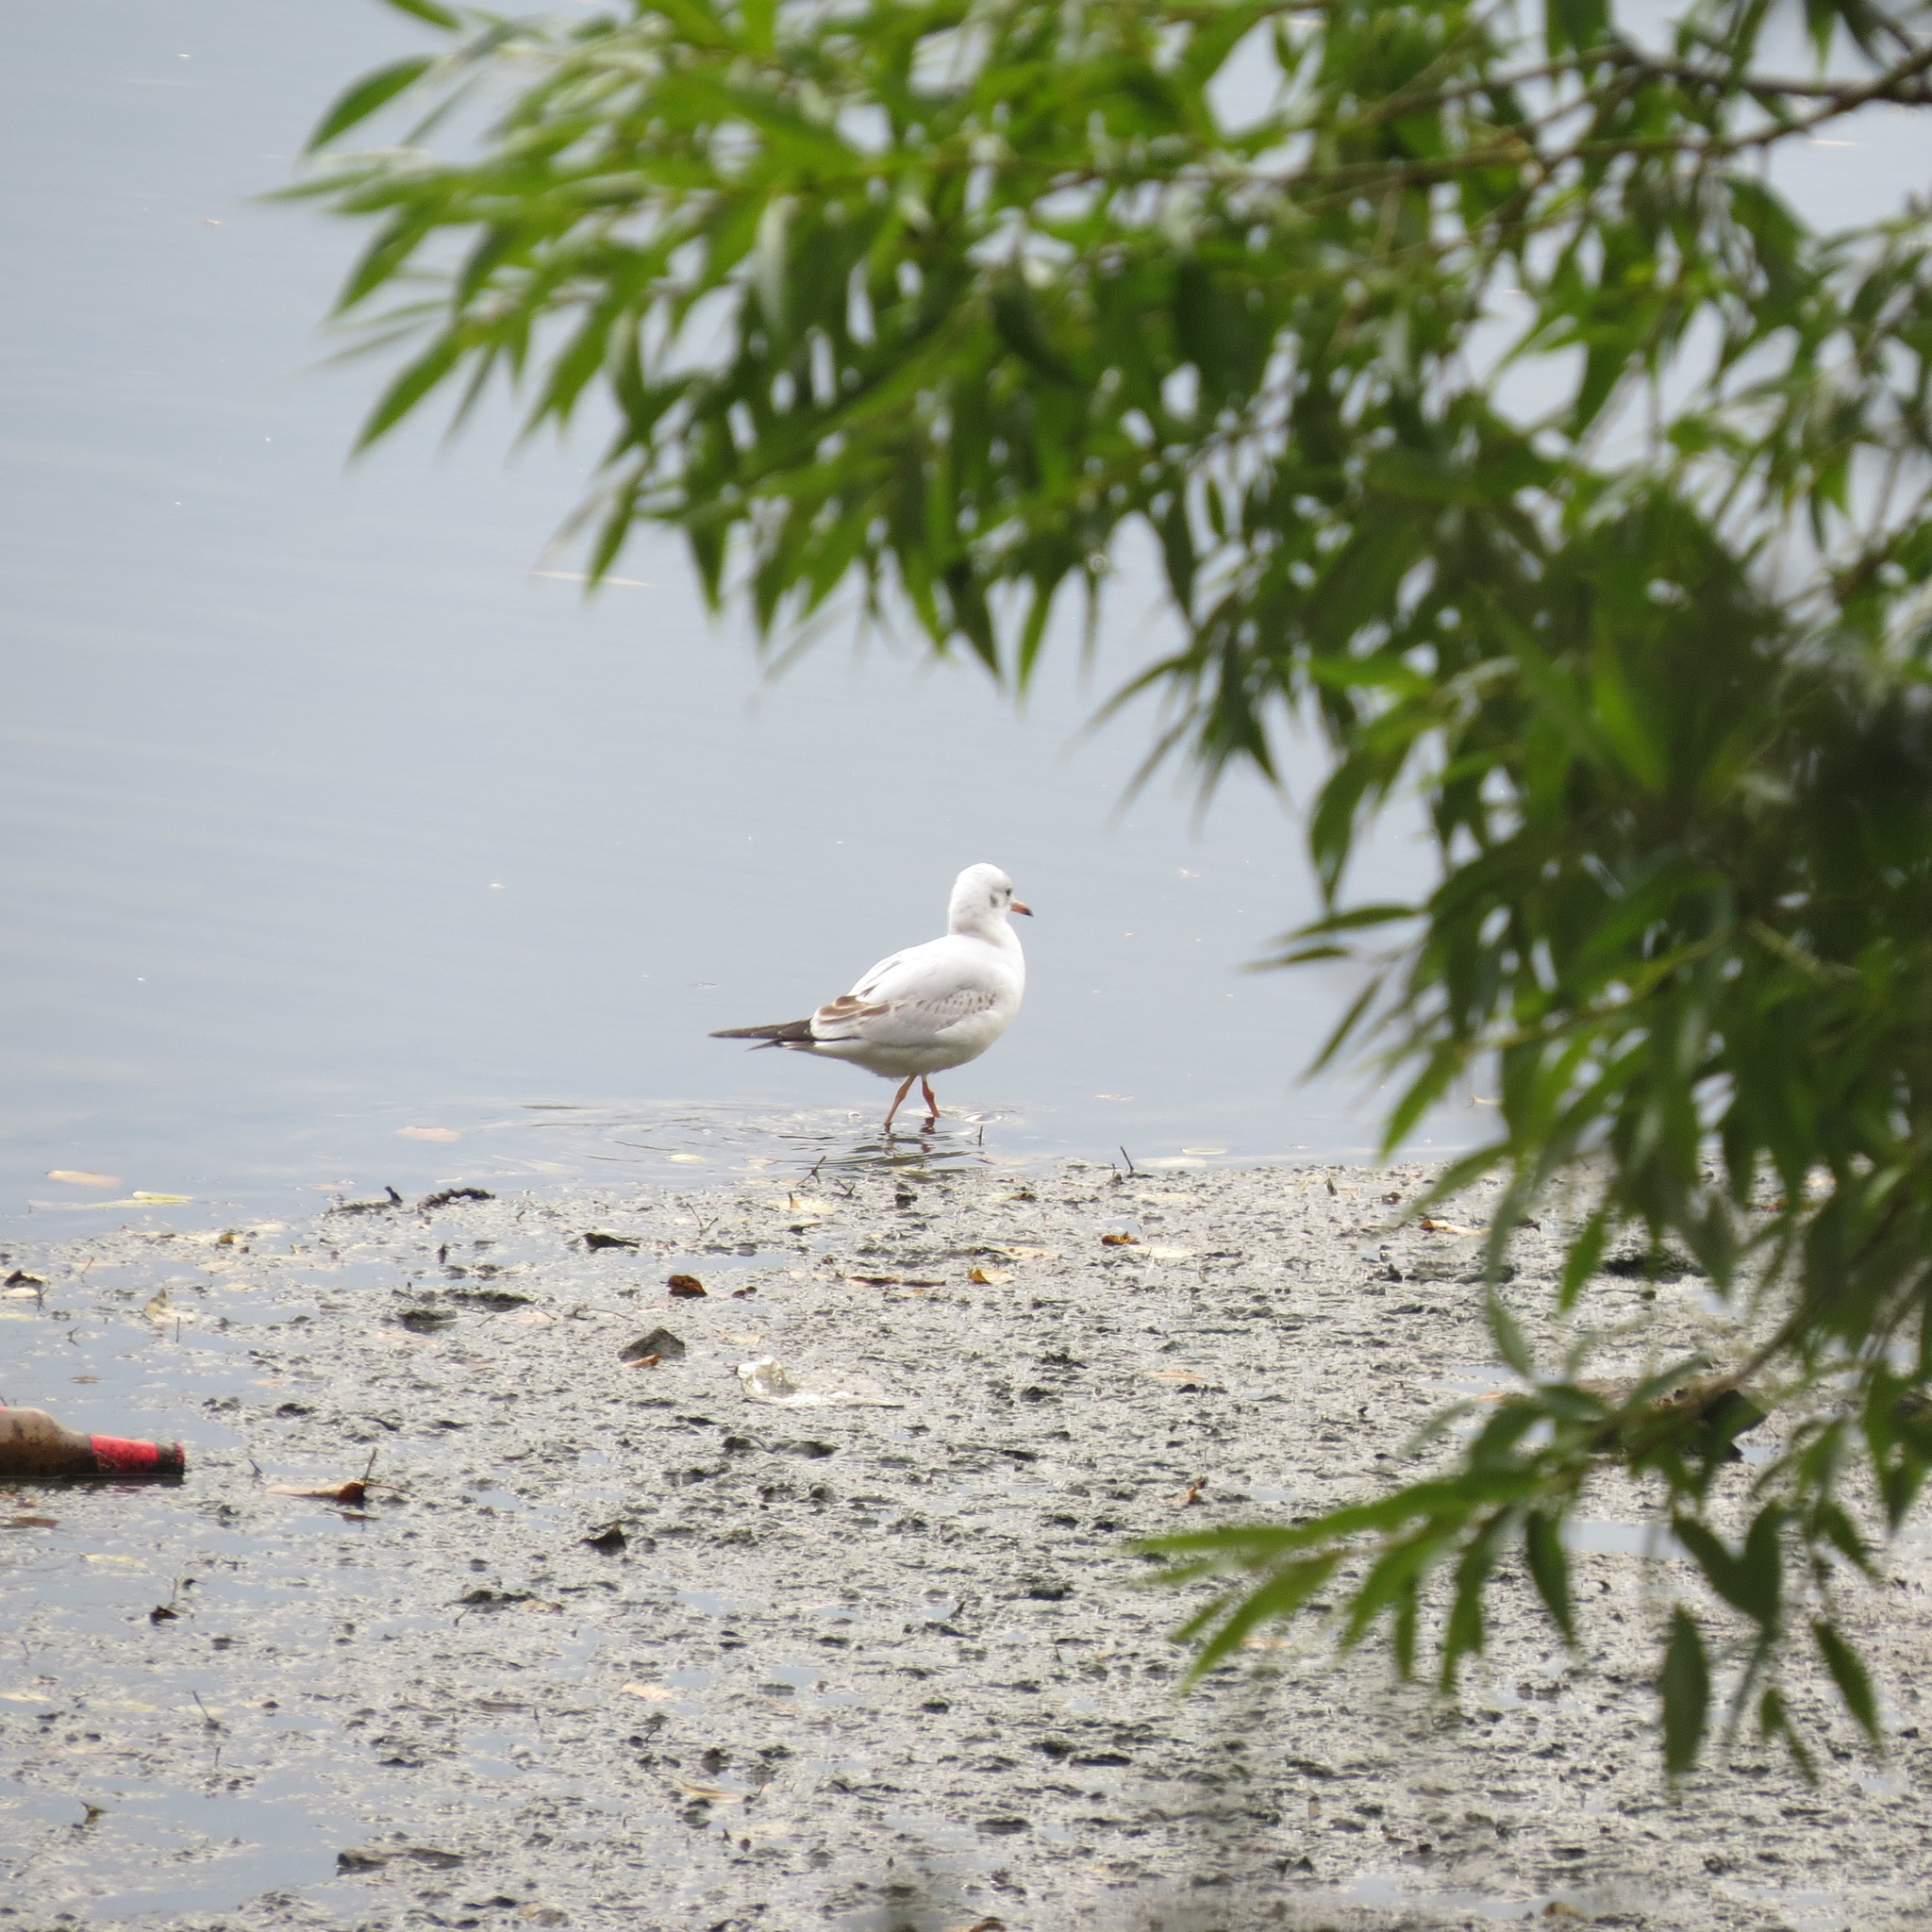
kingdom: Animalia
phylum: Chordata
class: Aves
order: Charadriiformes
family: Laridae
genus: Chroicocephalus
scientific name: Chroicocephalus ridibundus
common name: Black-headed gull
